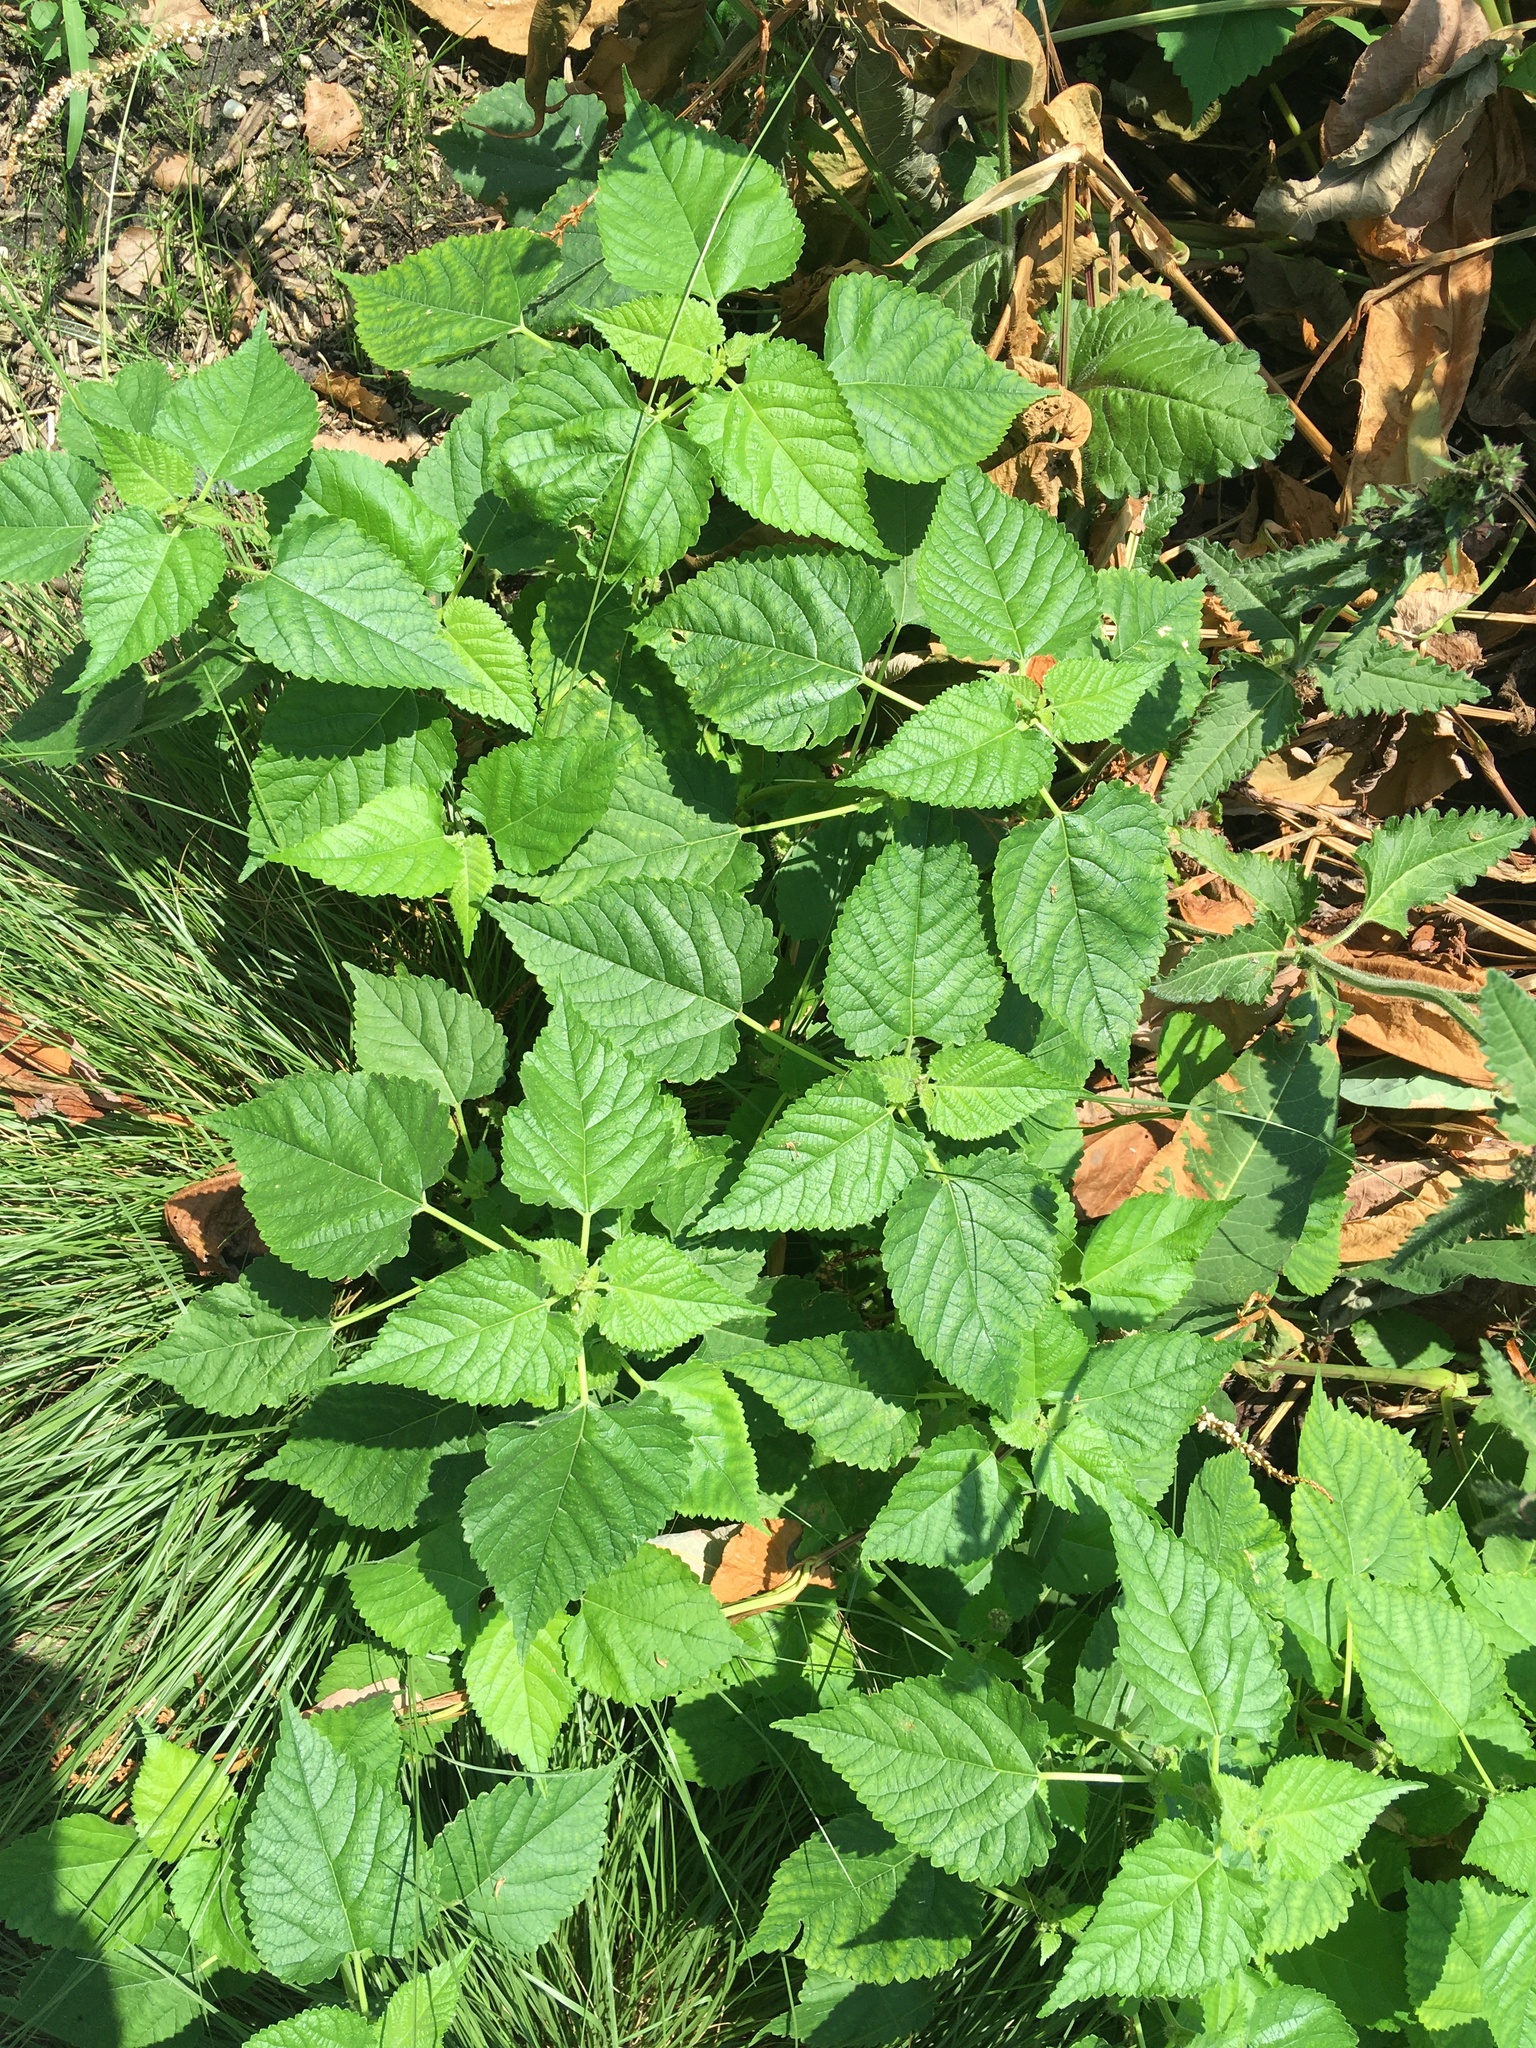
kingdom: Plantae
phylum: Tracheophyta
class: Magnoliopsida
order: Rosales
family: Moraceae
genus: Fatoua
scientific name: Fatoua villosa
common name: Hairy crabweed
